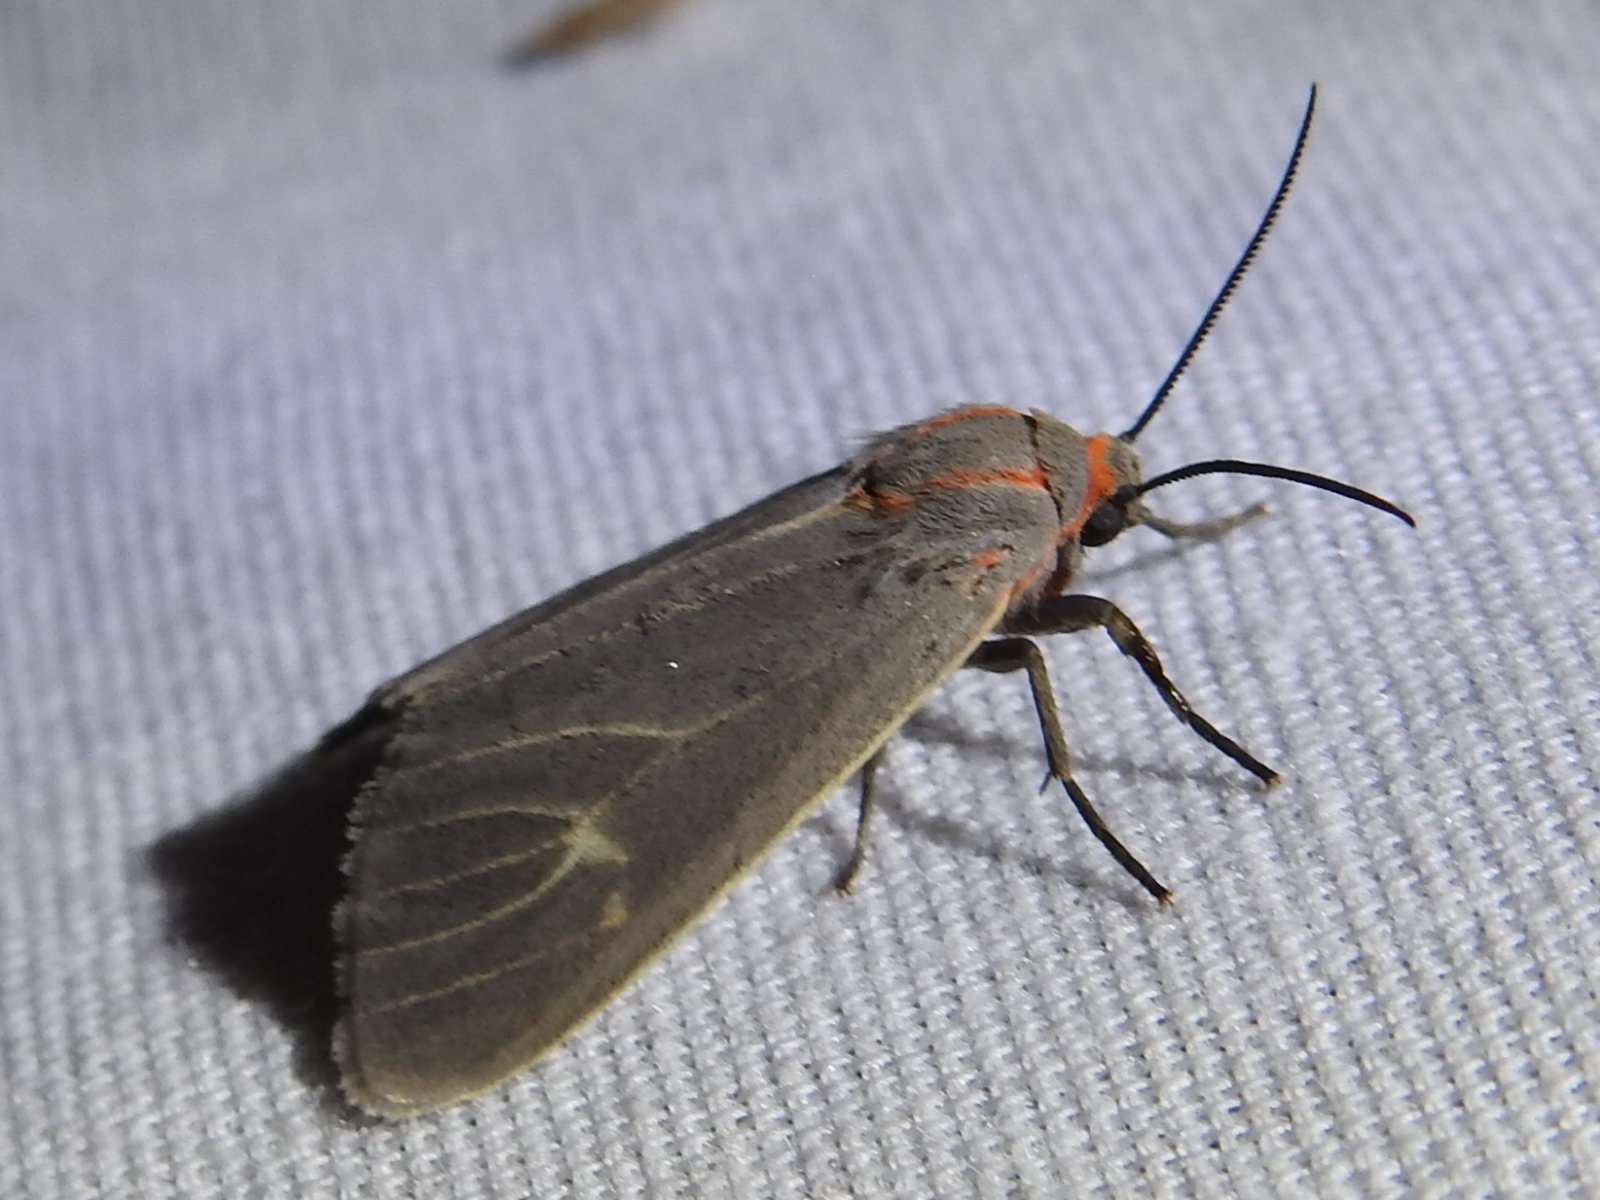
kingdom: Animalia
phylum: Arthropoda
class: Insecta
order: Lepidoptera
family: Erebidae
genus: Pygarctia
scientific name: Pygarctia pterygostigma
